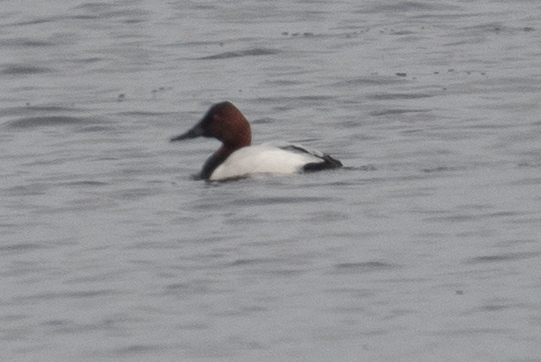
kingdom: Animalia
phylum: Chordata
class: Aves
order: Anseriformes
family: Anatidae
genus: Aythya
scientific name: Aythya valisineria
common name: Canvasback
